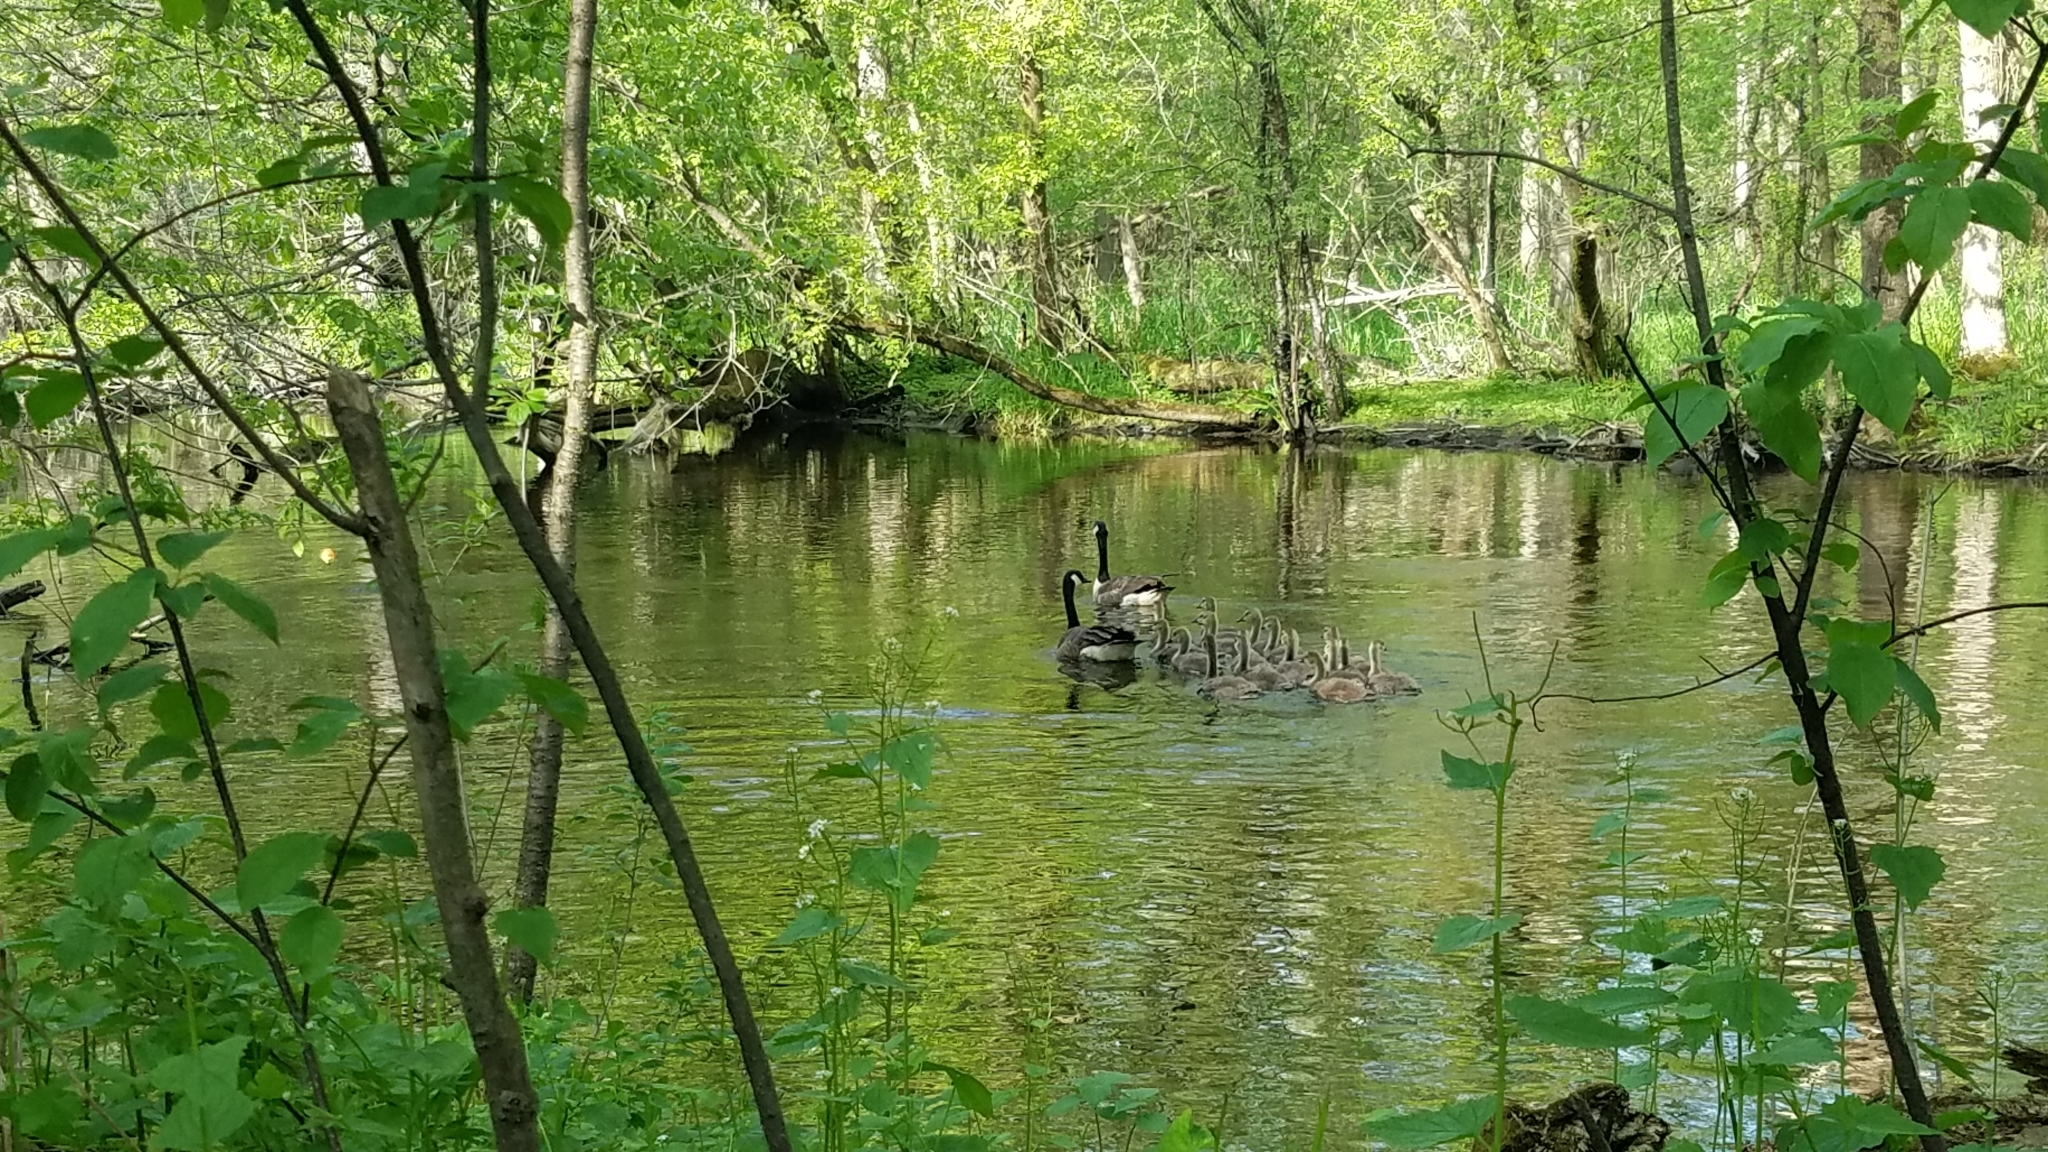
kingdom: Animalia
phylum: Chordata
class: Aves
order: Anseriformes
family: Anatidae
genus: Branta
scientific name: Branta canadensis
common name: Canada goose
